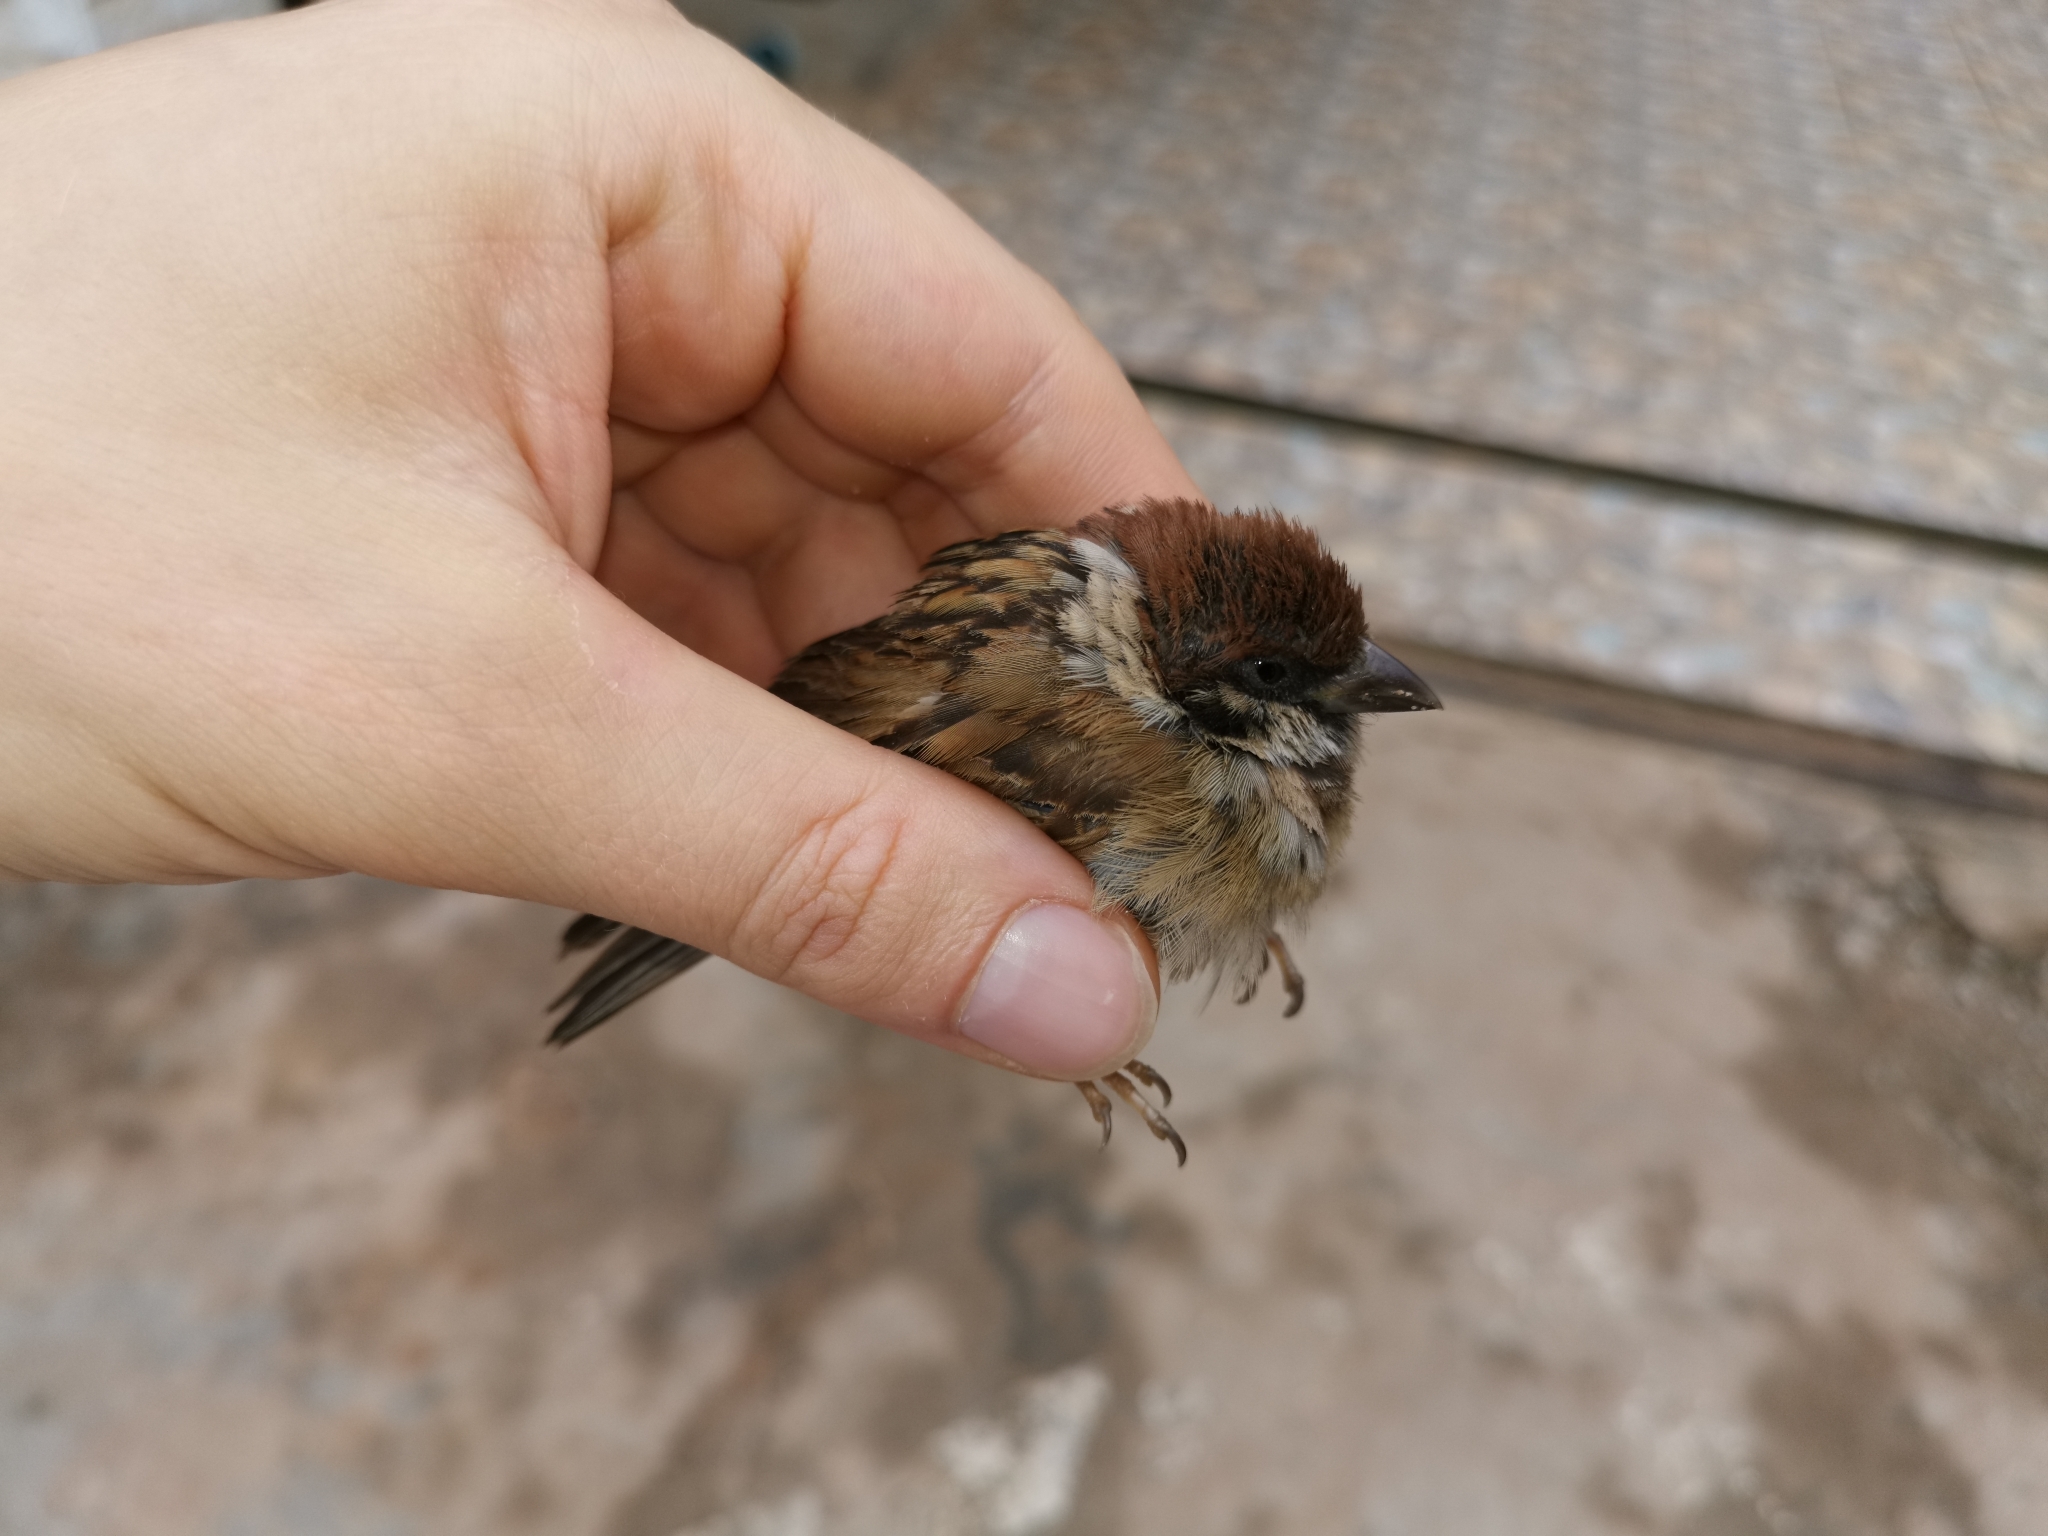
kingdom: Animalia
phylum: Chordata
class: Aves
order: Passeriformes
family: Passeridae
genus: Passer
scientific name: Passer montanus
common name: Eurasian tree sparrow
